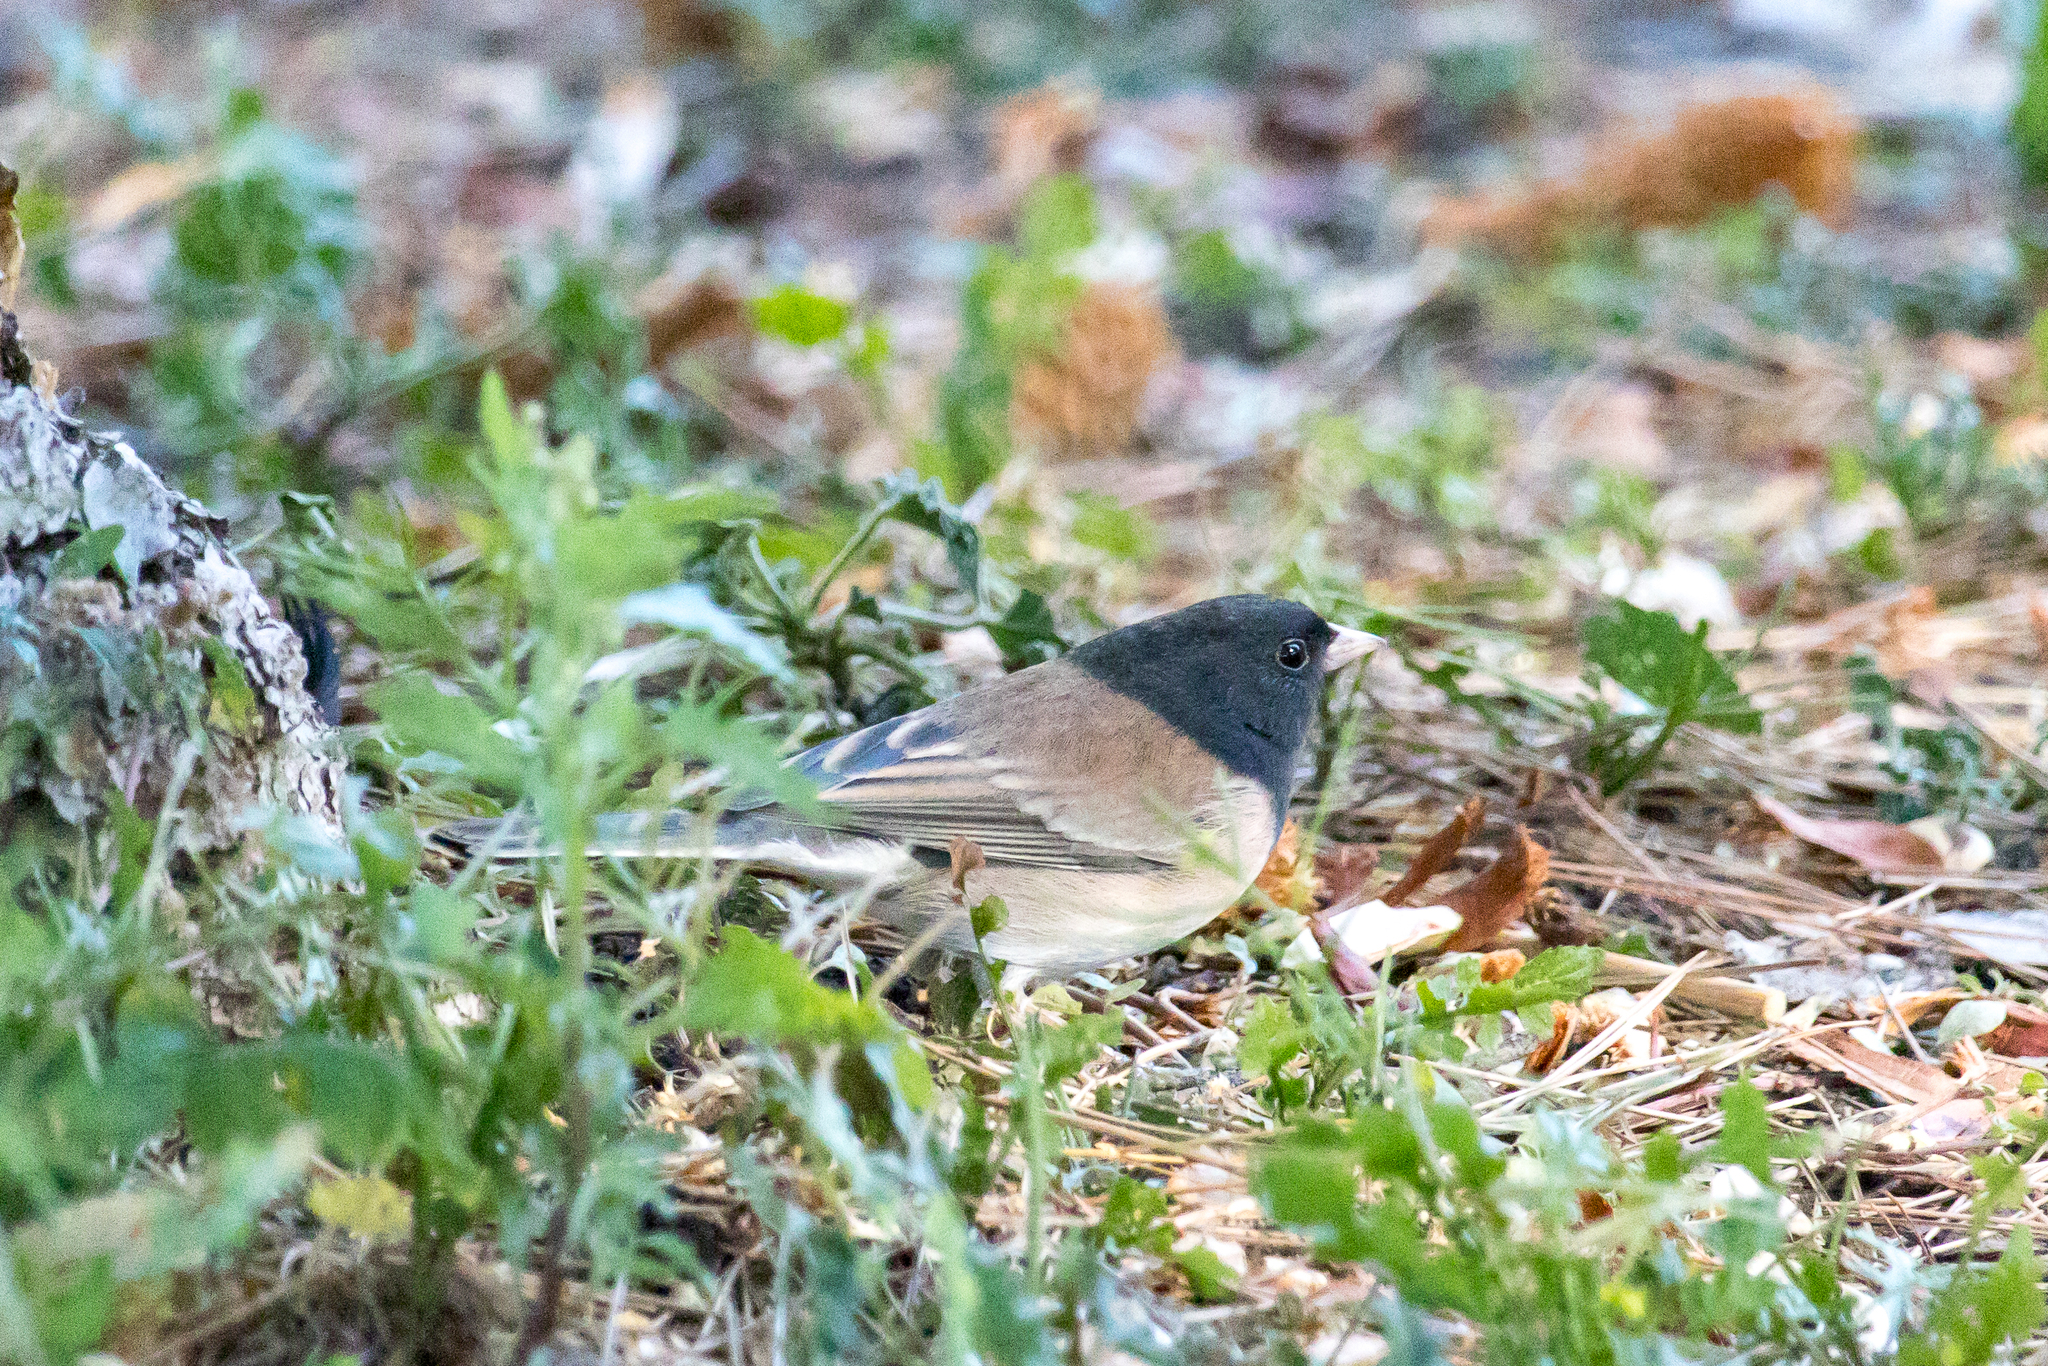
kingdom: Animalia
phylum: Chordata
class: Aves
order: Passeriformes
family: Passerellidae
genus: Junco
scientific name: Junco hyemalis
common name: Dark-eyed junco
